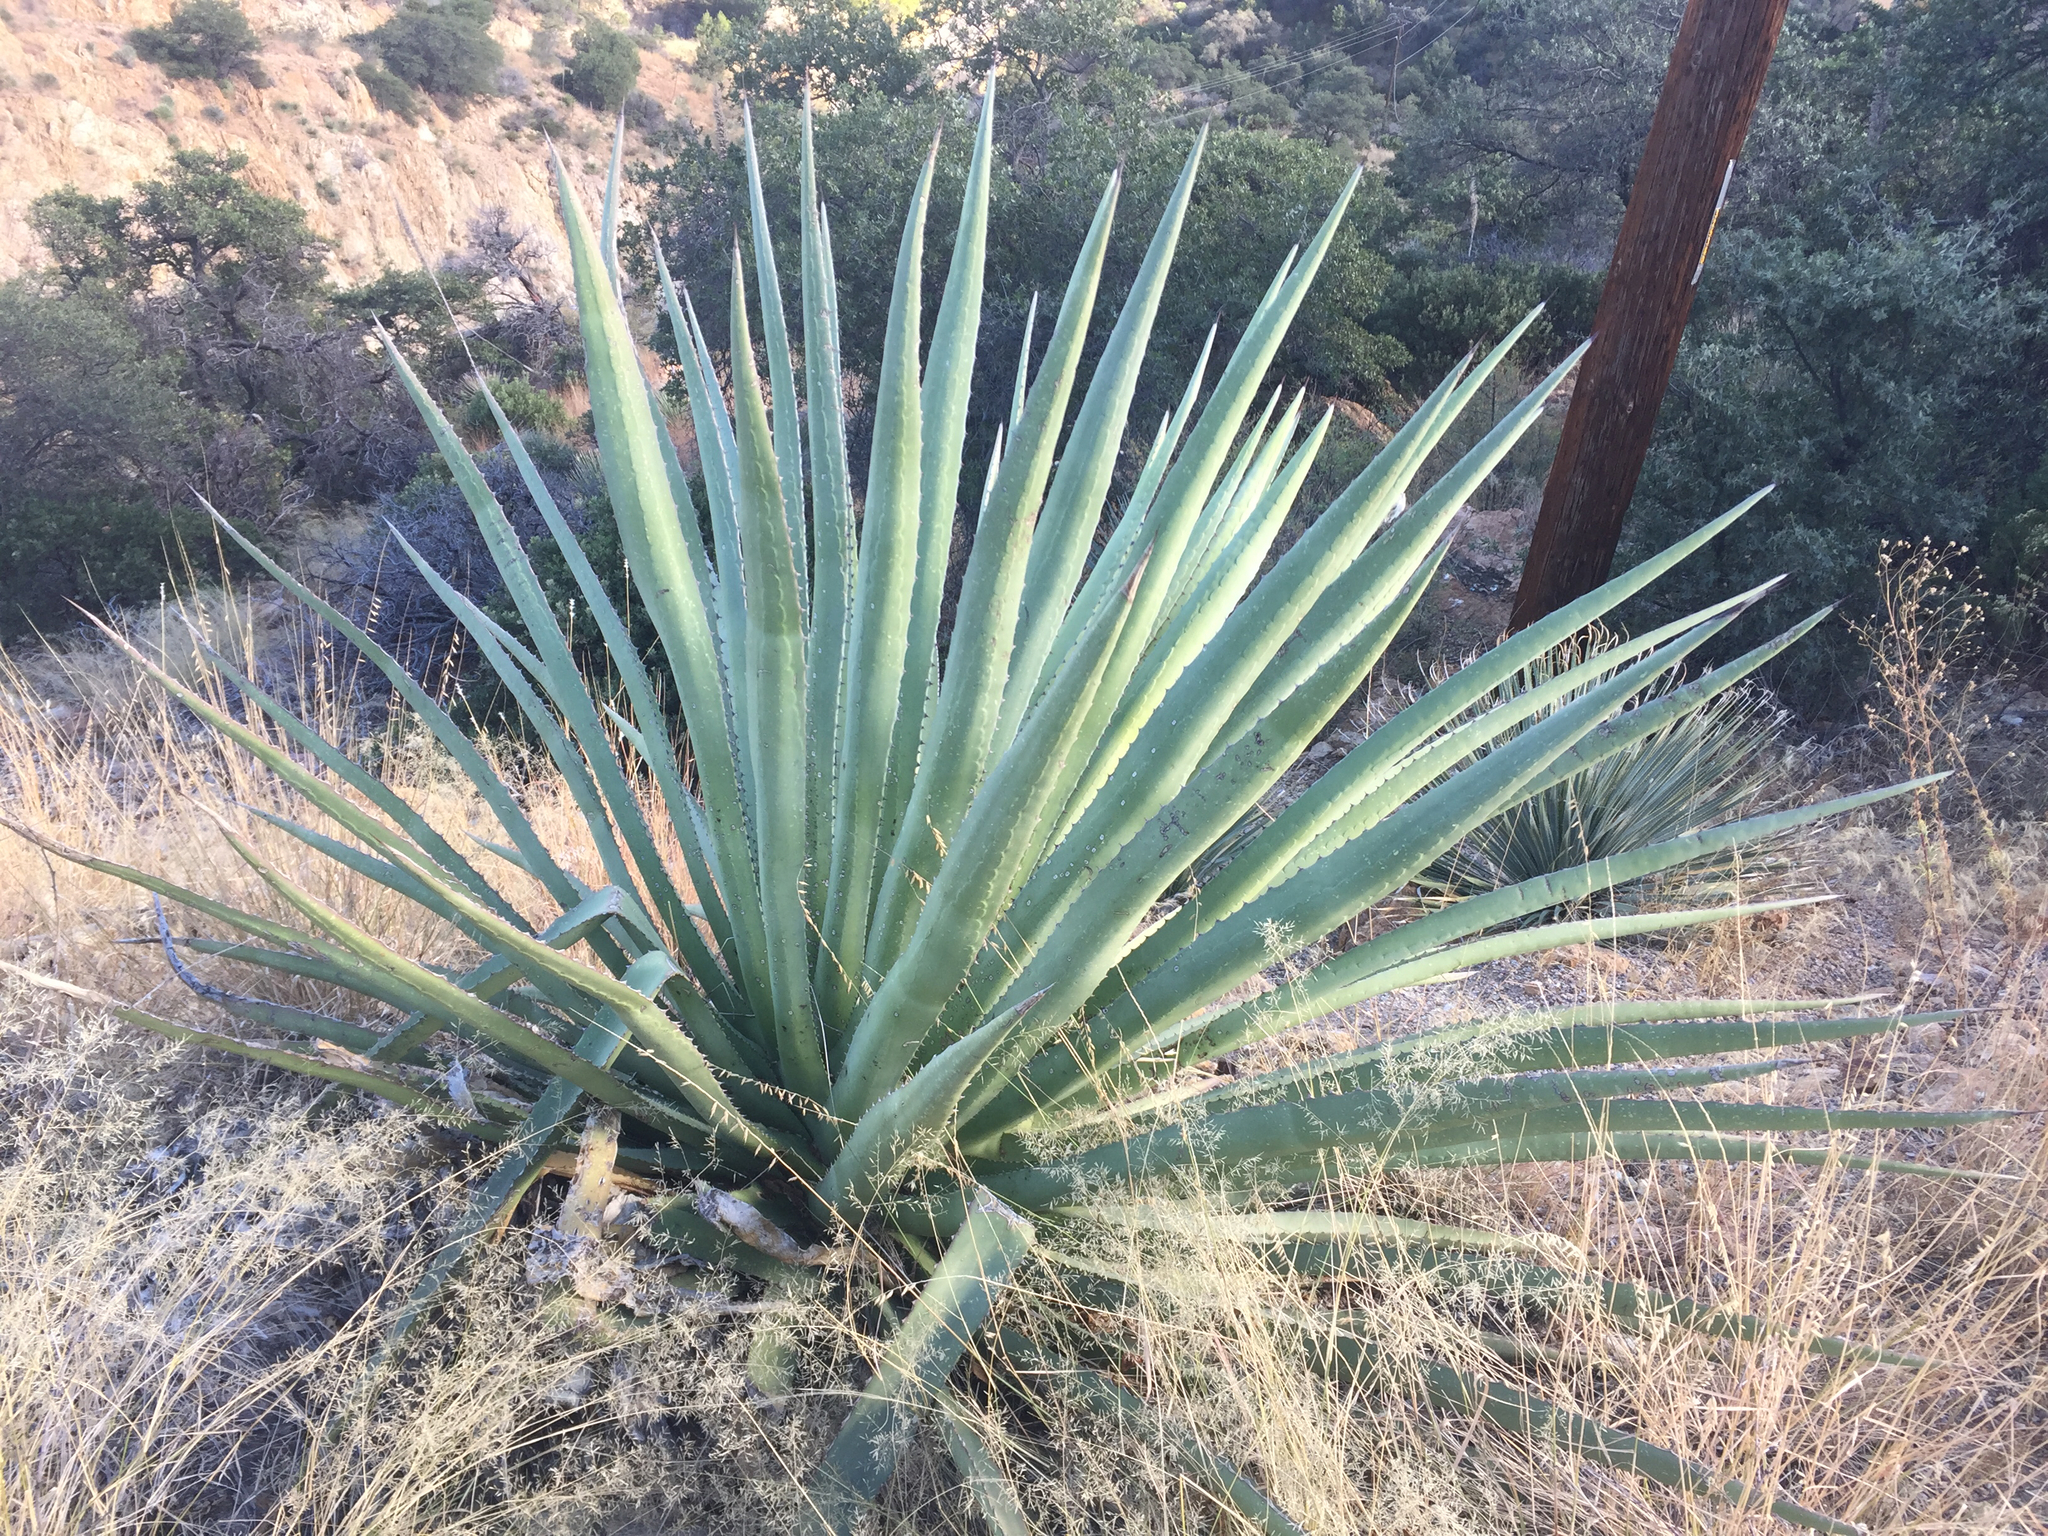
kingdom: Plantae
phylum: Tracheophyta
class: Liliopsida
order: Asparagales
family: Asparagaceae
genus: Agave
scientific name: Agave palmeri
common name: Palmer agave
